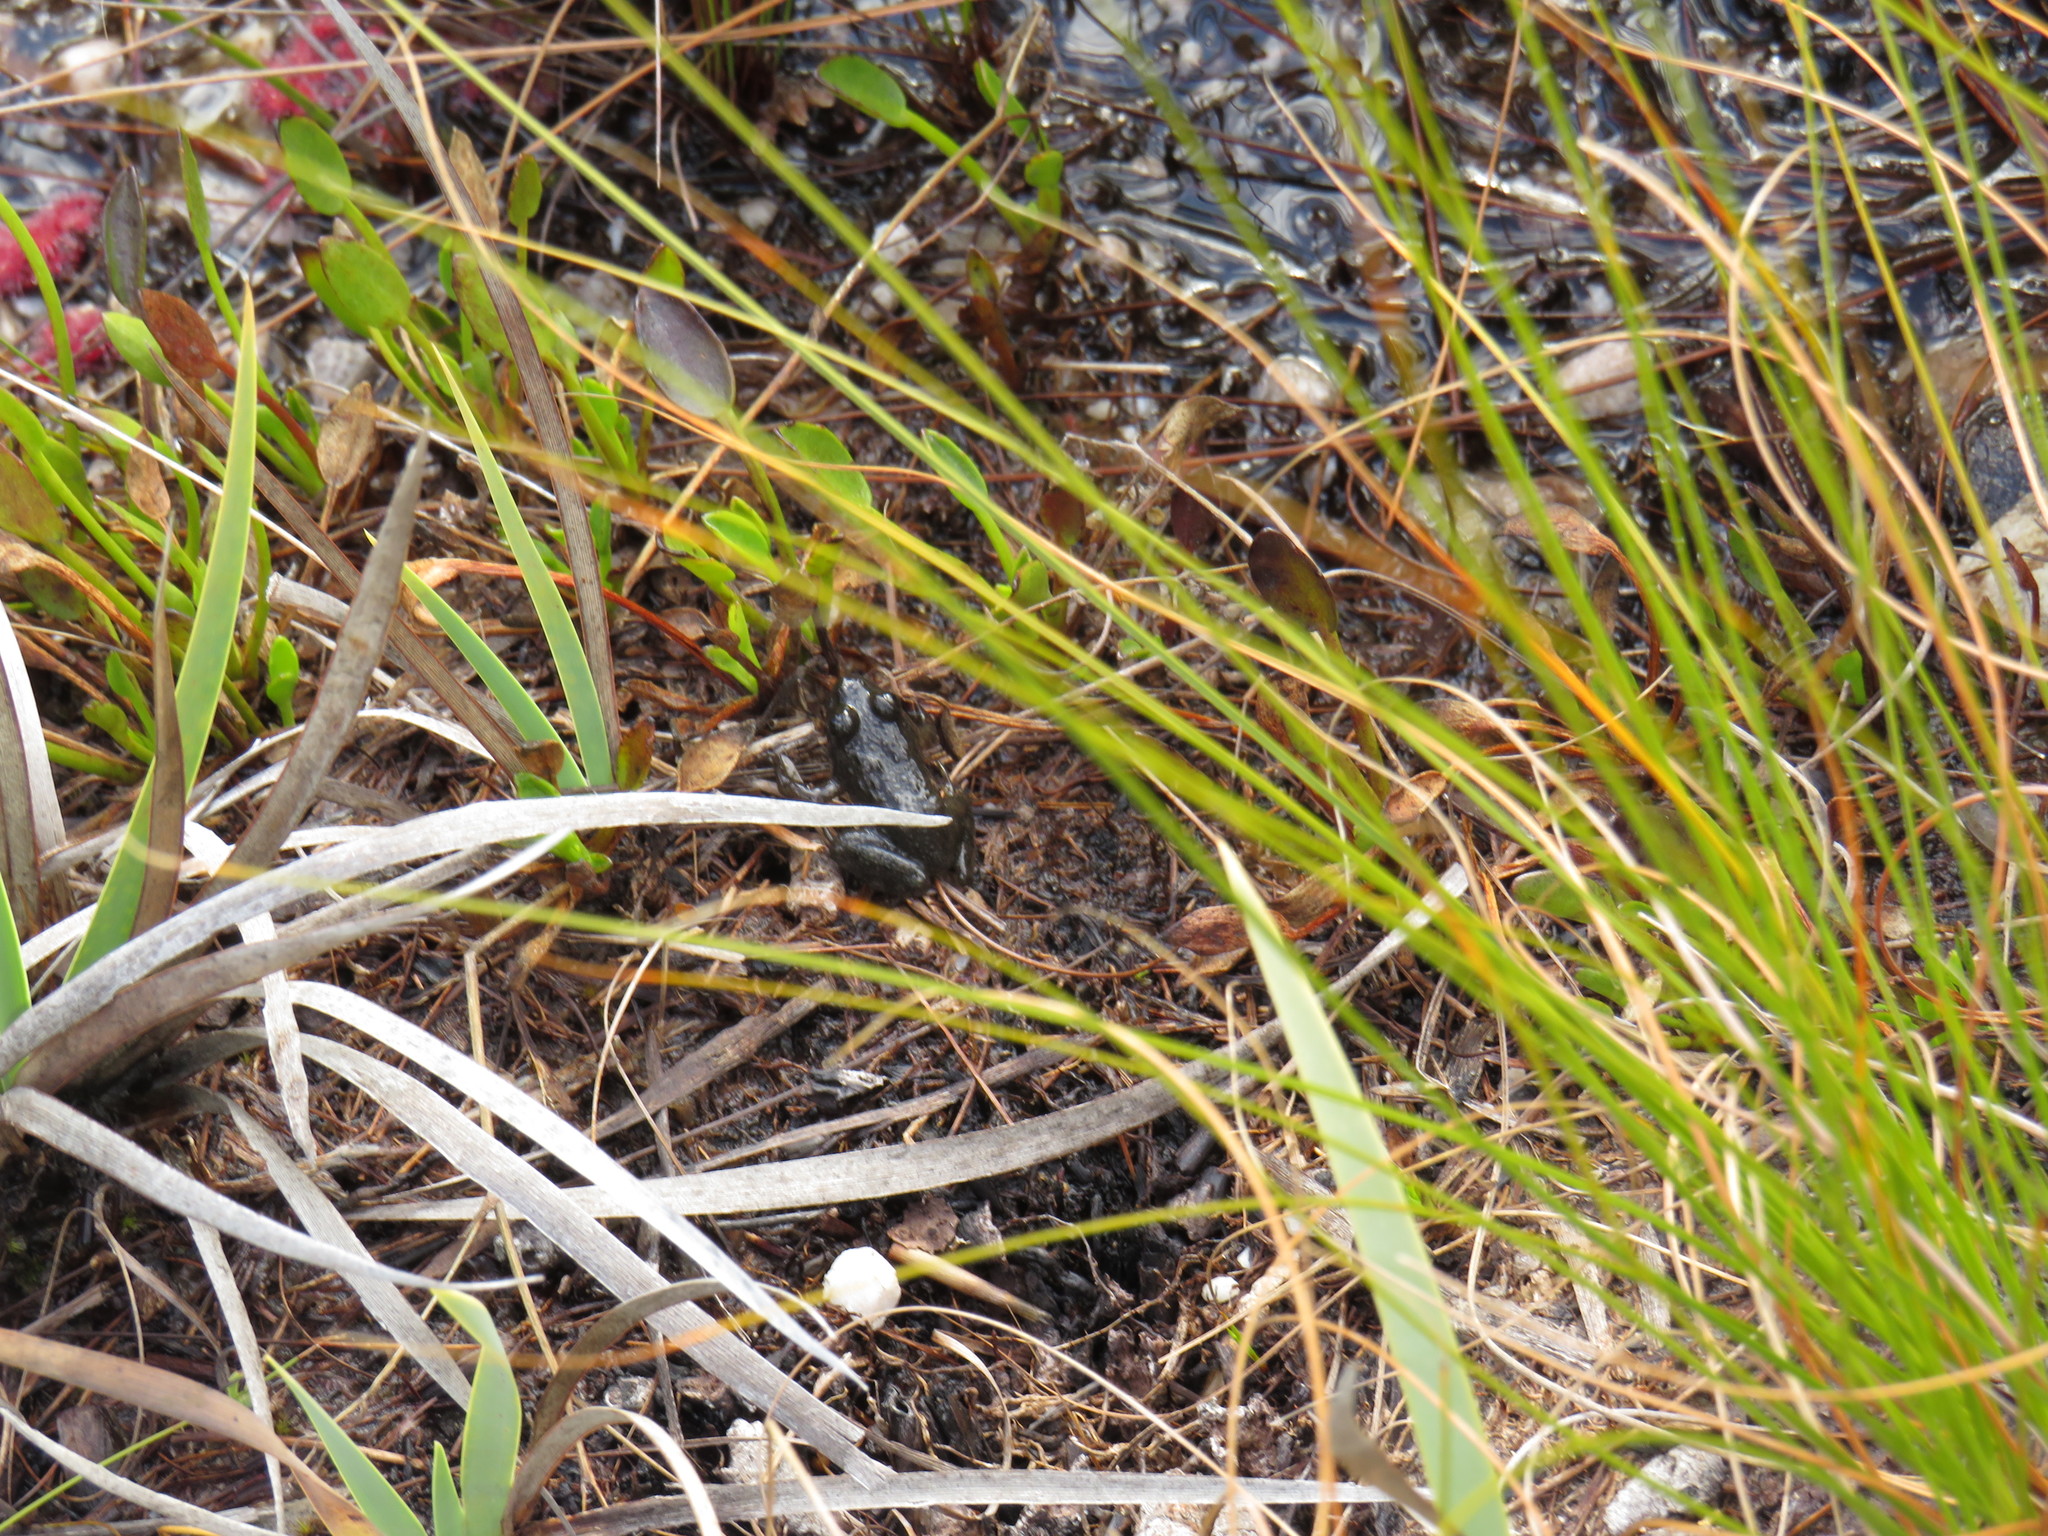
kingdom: Animalia
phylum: Chordata
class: Amphibia
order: Anura
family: Pyxicephalidae
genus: Amietia
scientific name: Amietia fuscigula
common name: Cape rana
